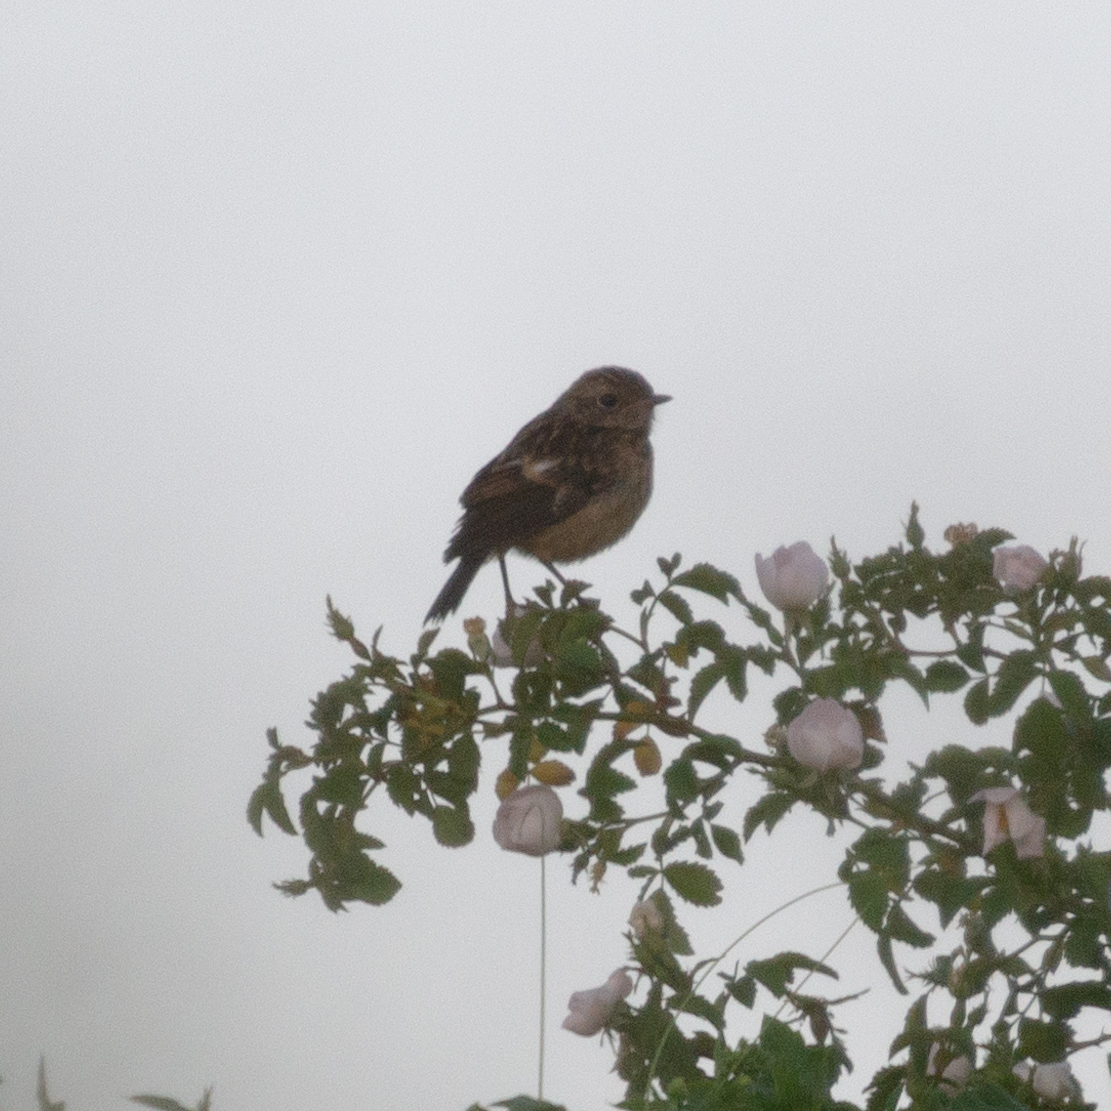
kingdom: Animalia
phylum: Chordata
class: Aves
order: Passeriformes
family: Muscicapidae
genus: Saxicola
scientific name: Saxicola rubicola
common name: European stonechat
